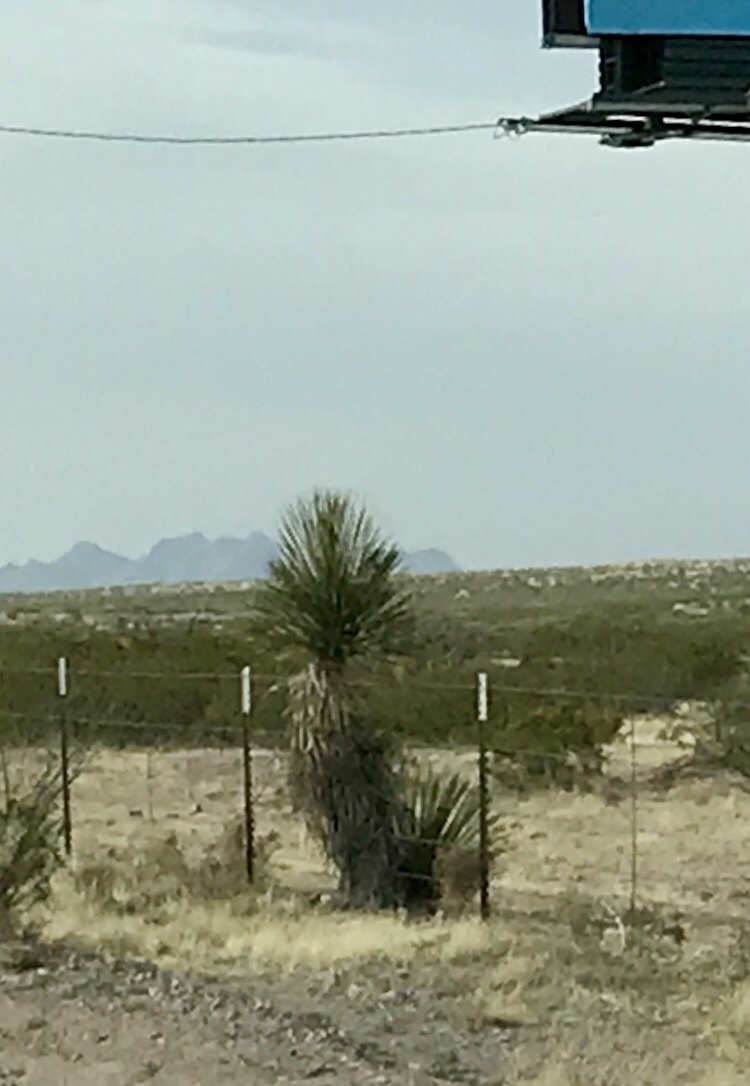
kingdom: Plantae
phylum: Tracheophyta
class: Liliopsida
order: Asparagales
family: Asparagaceae
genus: Yucca
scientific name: Yucca elata
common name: Palmella
